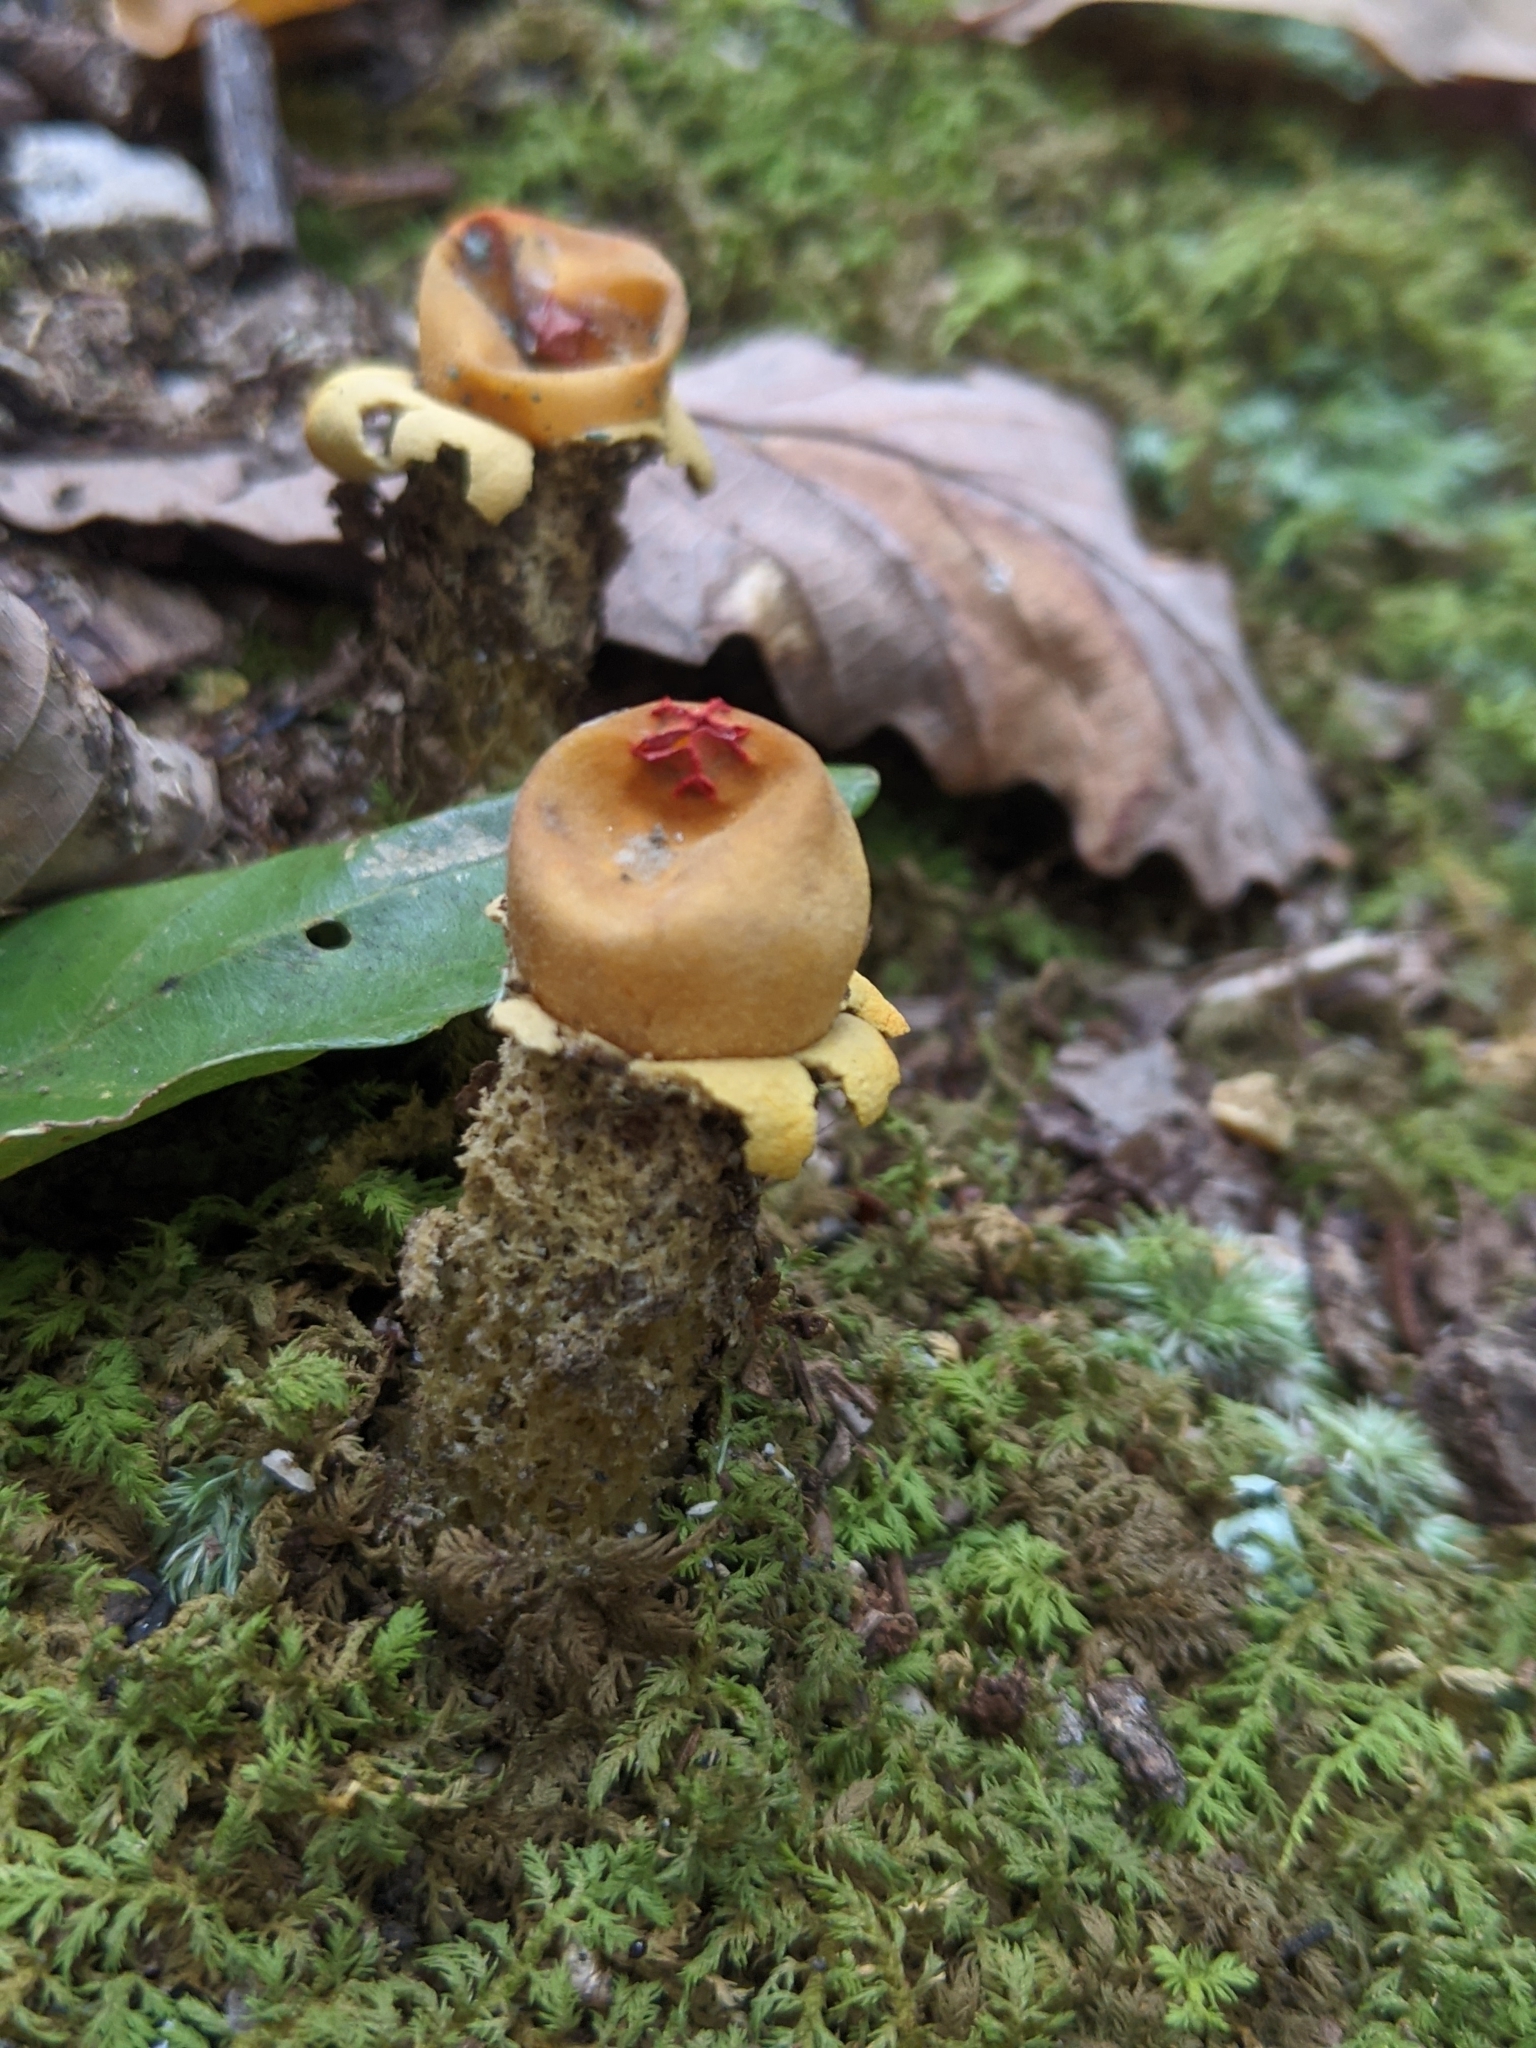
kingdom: Fungi
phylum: Basidiomycota
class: Agaricomycetes
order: Boletales
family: Calostomataceae
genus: Calostoma
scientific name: Calostoma lutescens
